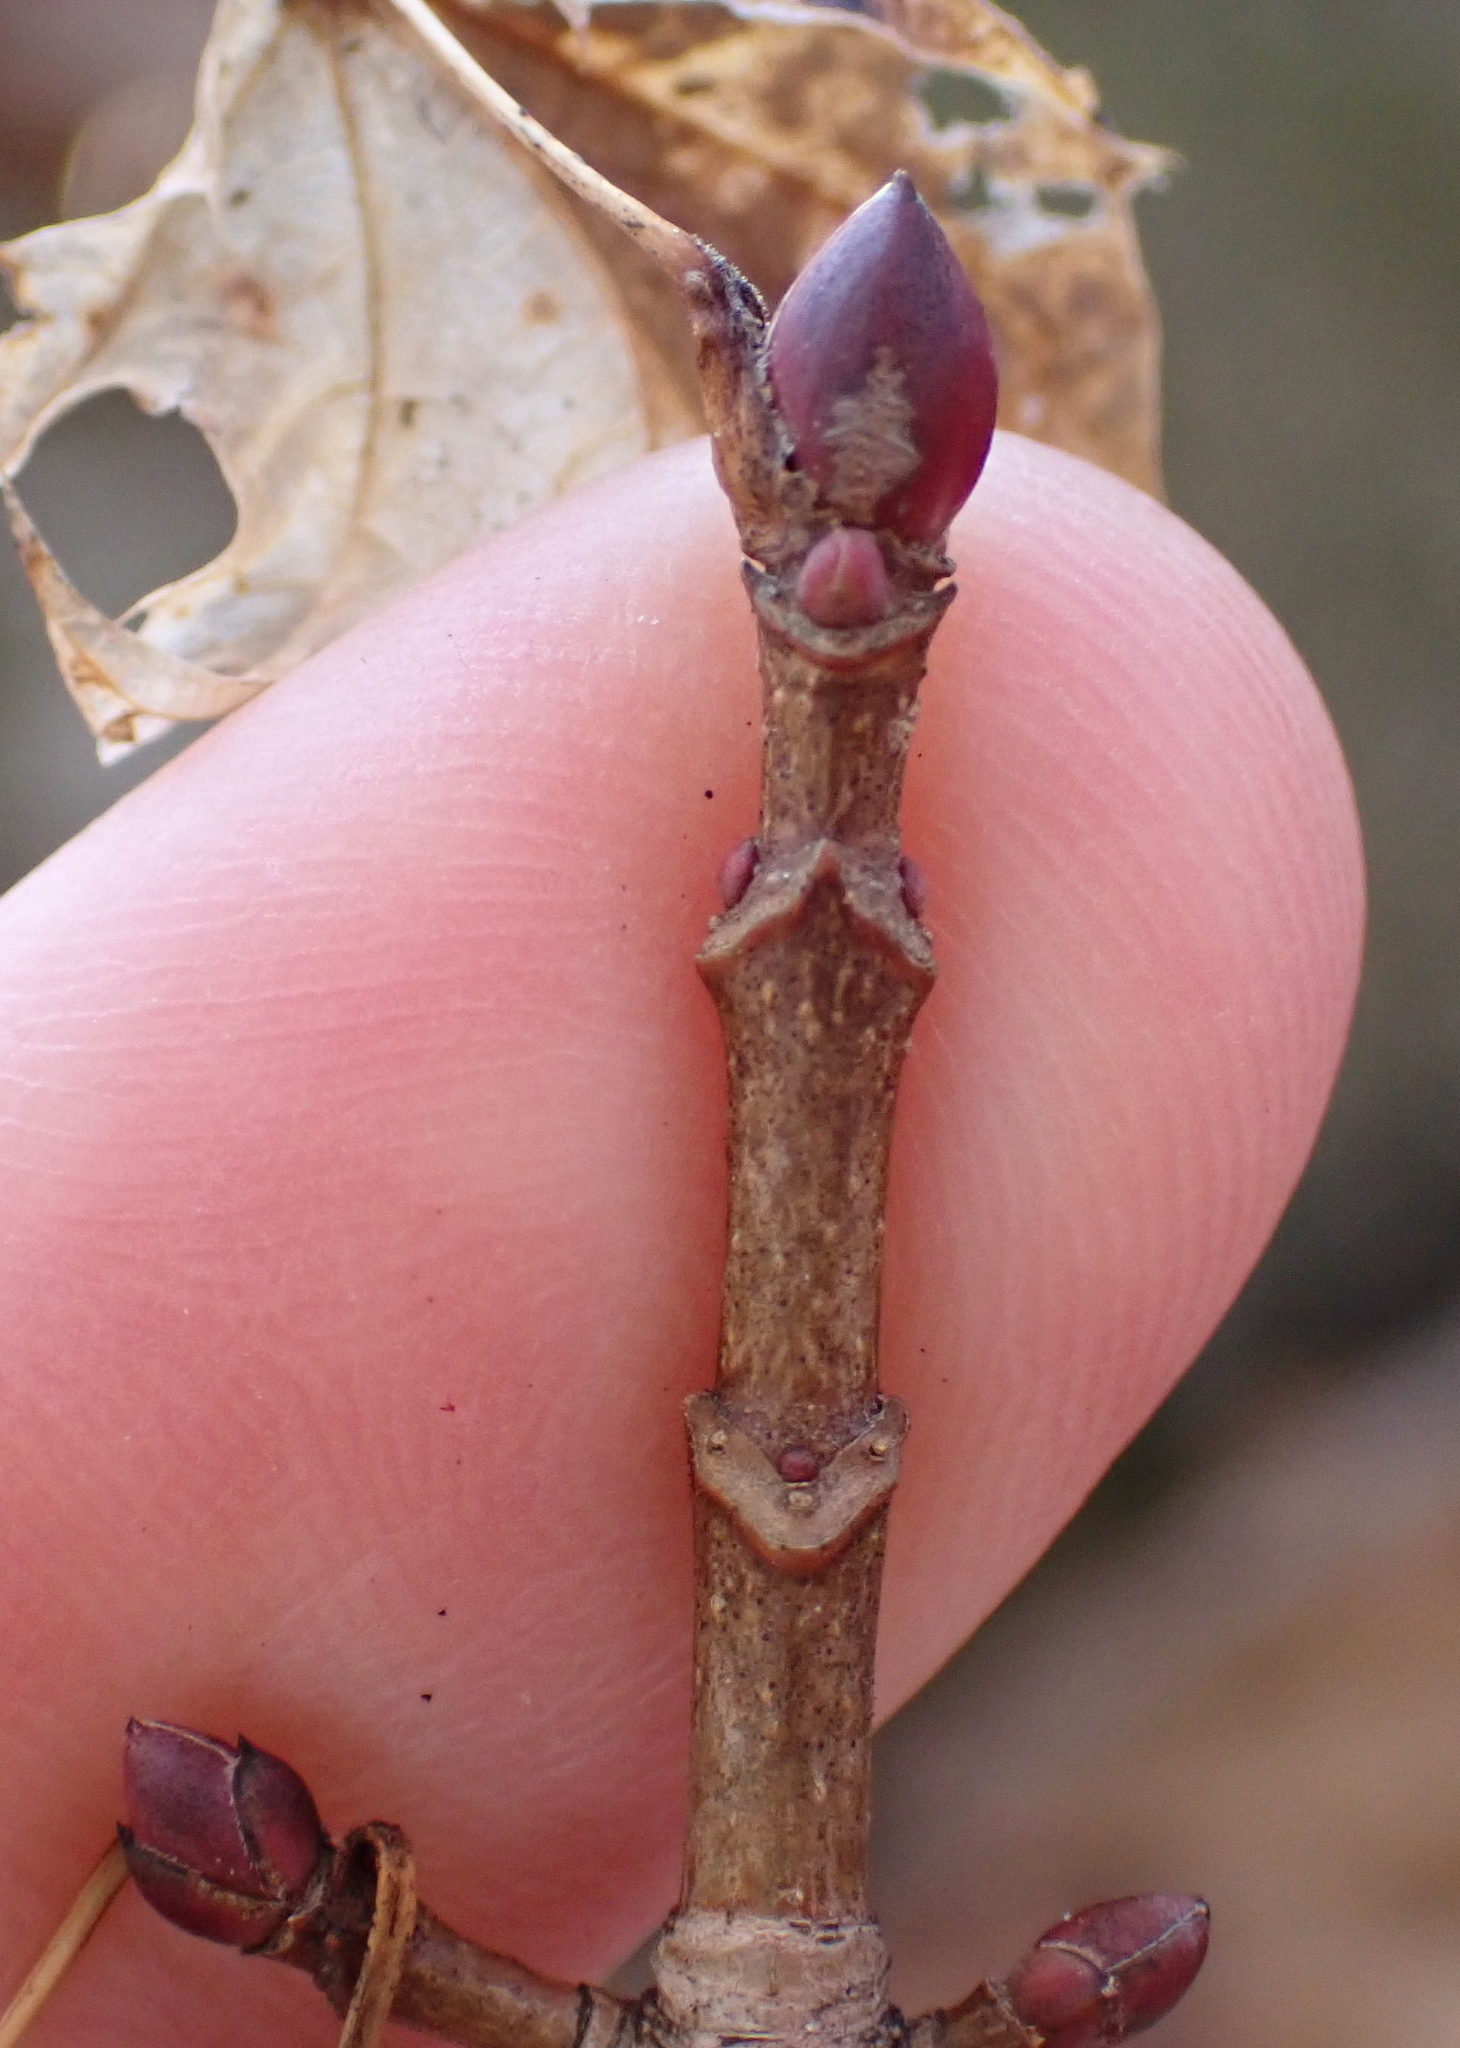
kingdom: Plantae
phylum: Tracheophyta
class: Magnoliopsida
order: Sapindales
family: Sapindaceae
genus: Acer
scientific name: Acer platanoides
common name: Norway maple
